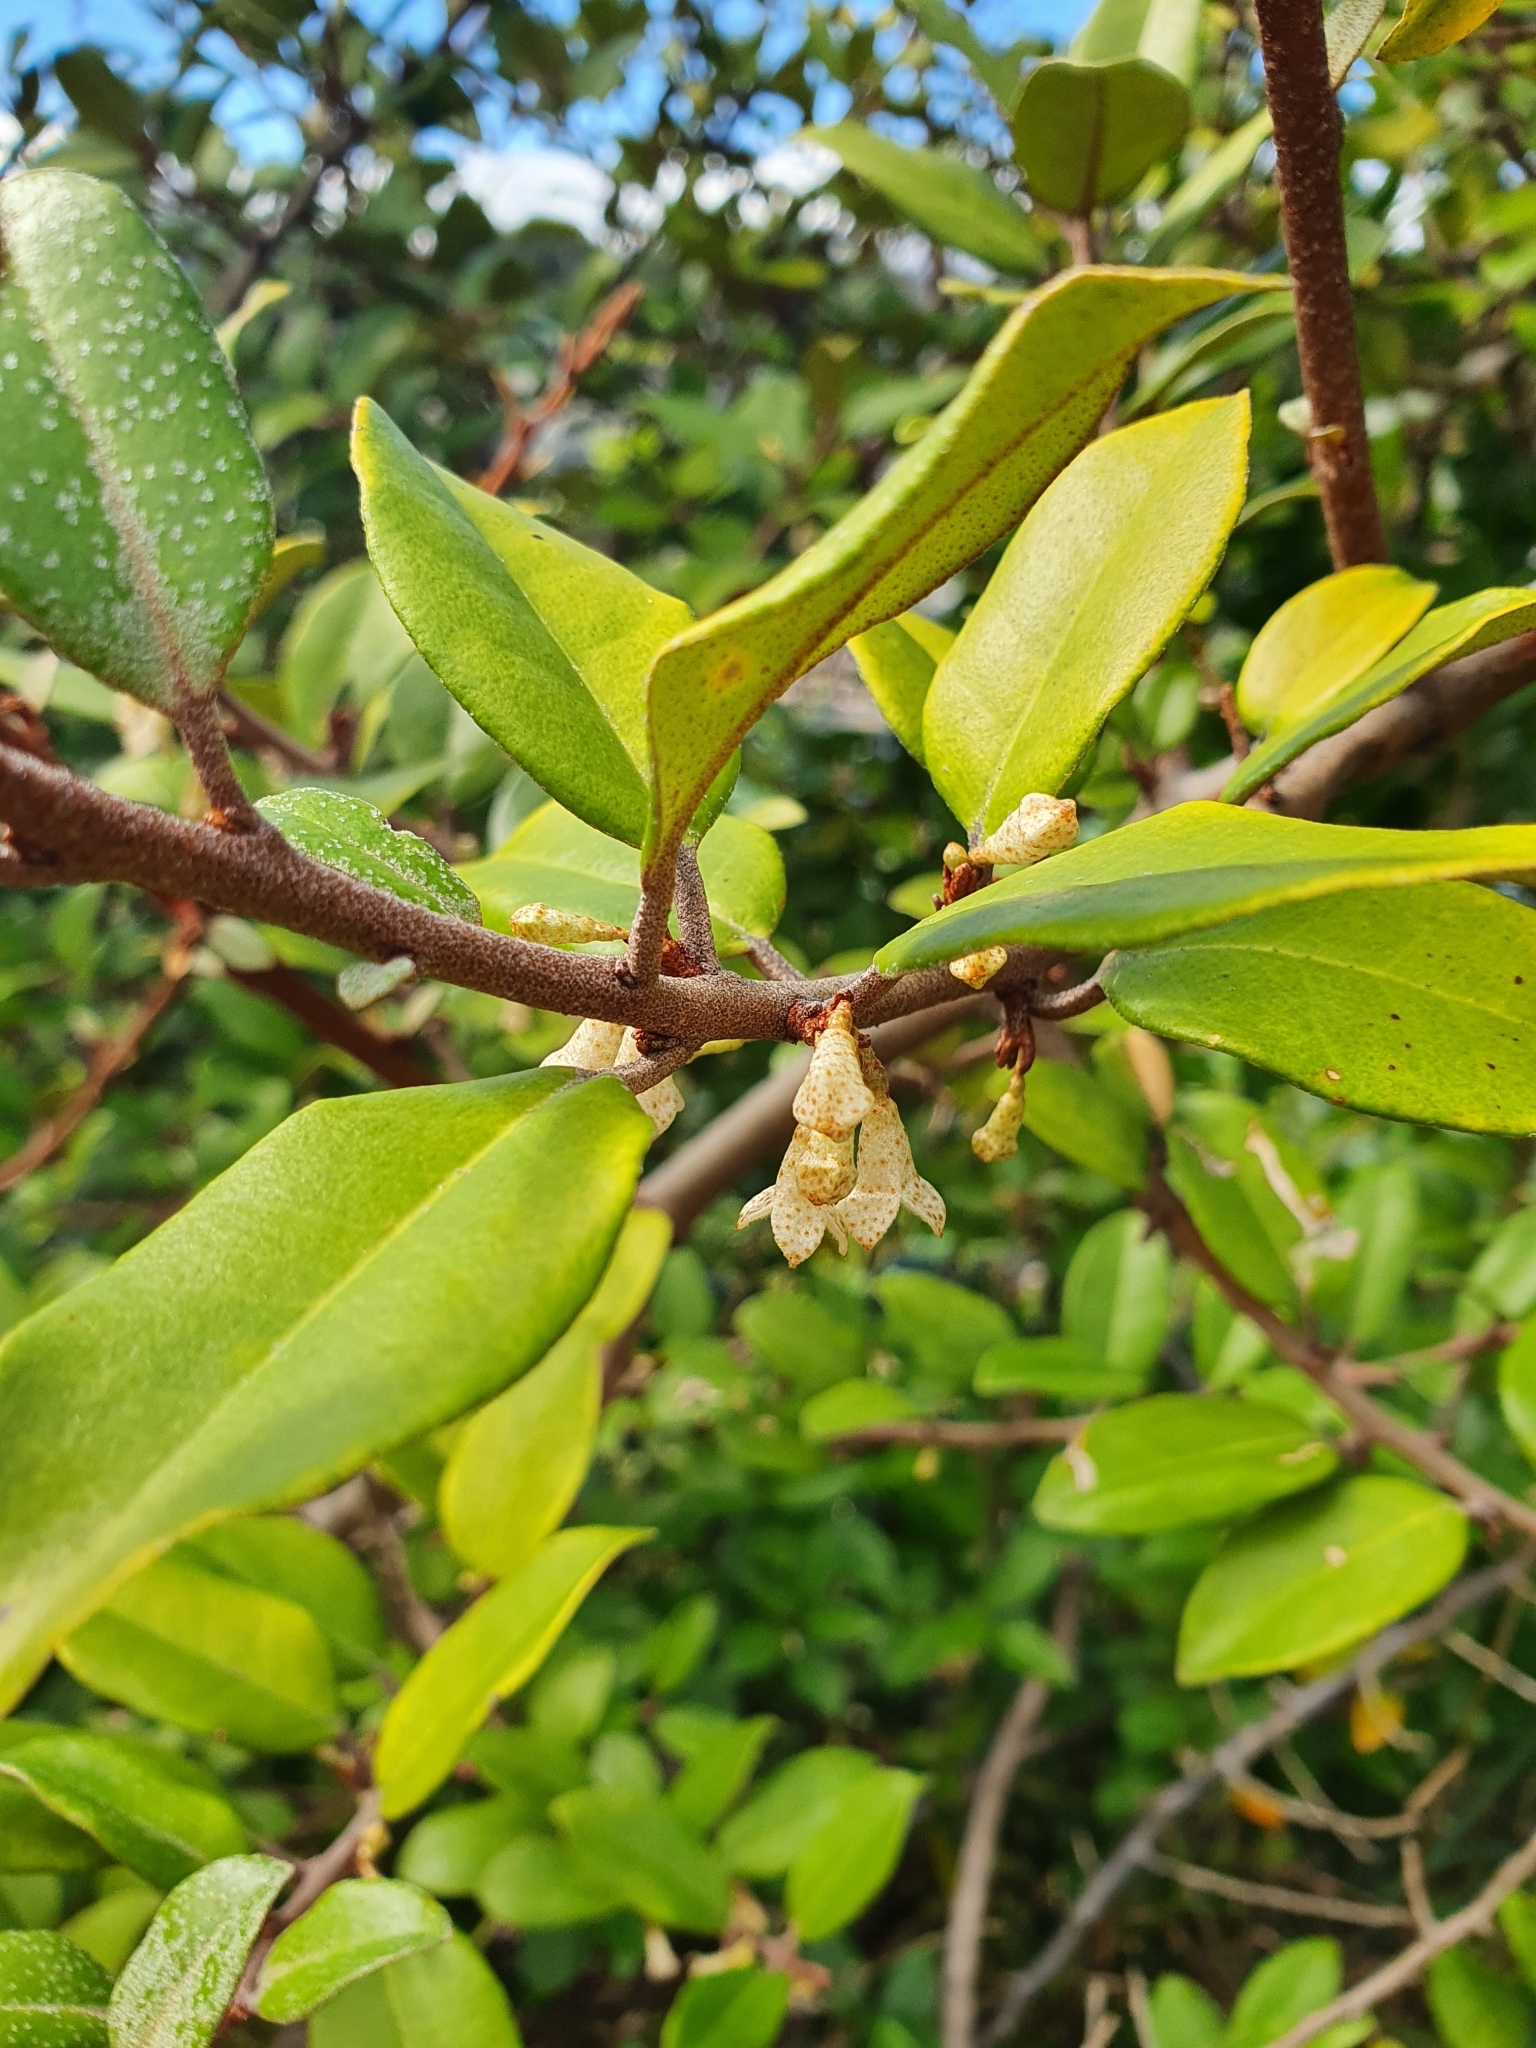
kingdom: Plantae
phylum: Tracheophyta
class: Magnoliopsida
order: Rosales
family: Elaeagnaceae
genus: Elaeagnus
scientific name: Elaeagnus reflexa
